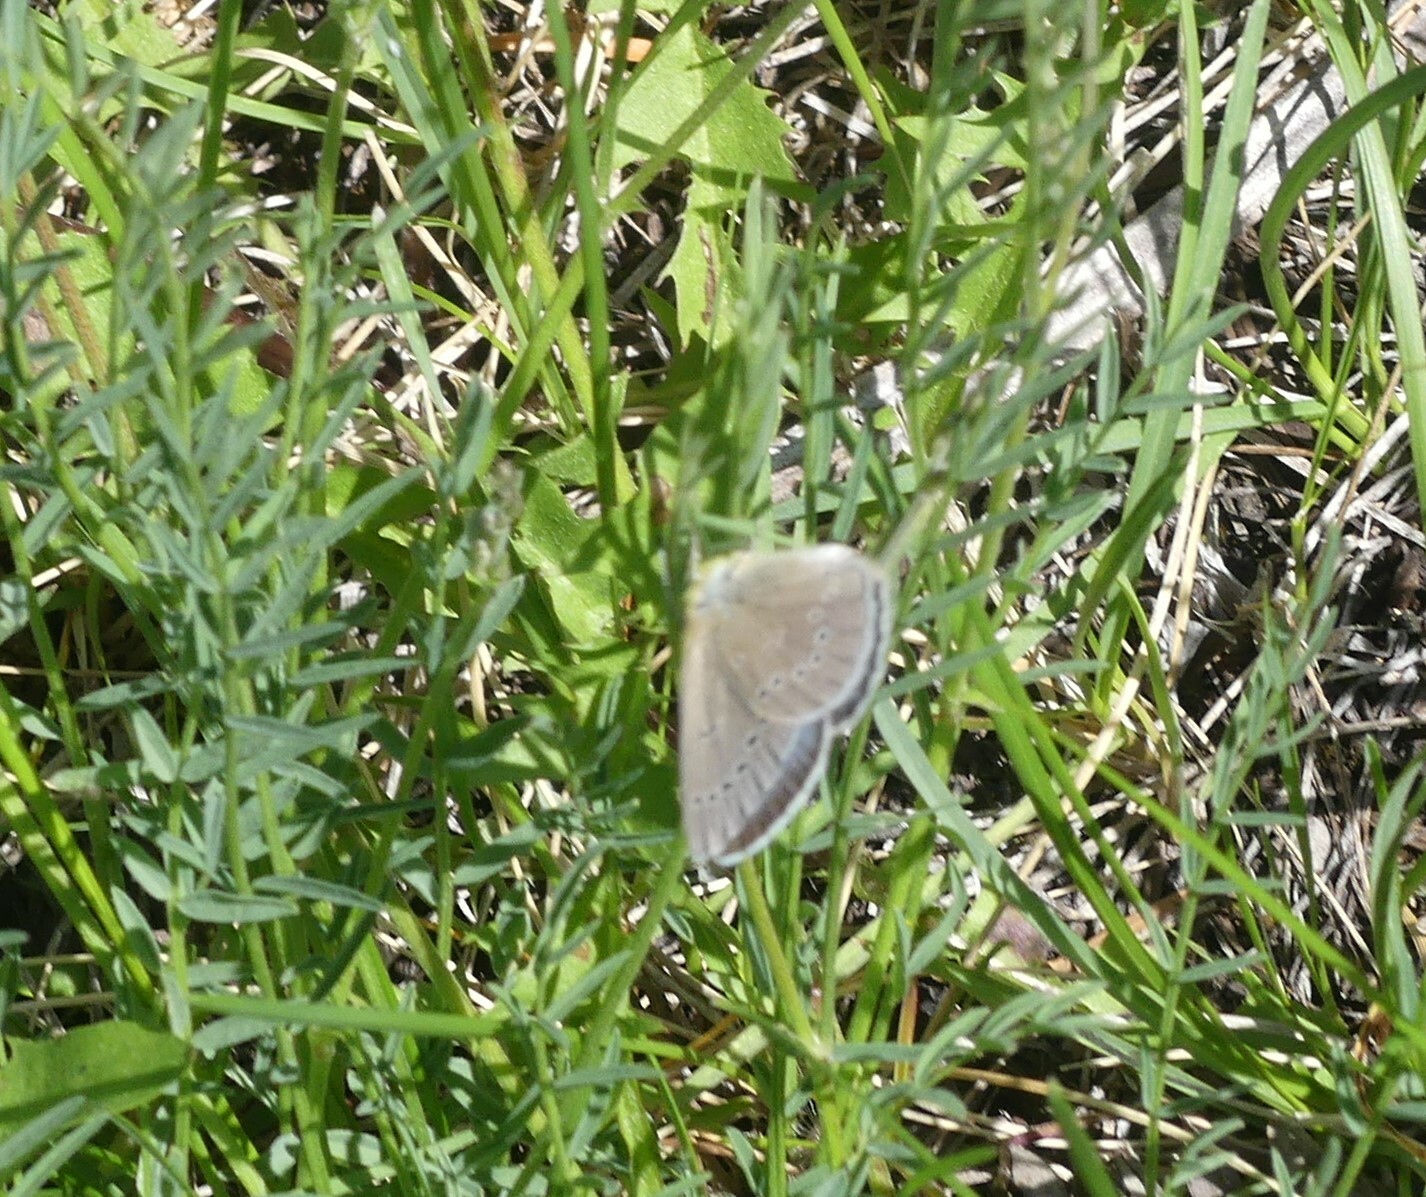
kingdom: Animalia
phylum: Arthropoda
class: Insecta
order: Lepidoptera
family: Lycaenidae
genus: Glaucopsyche
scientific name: Glaucopsyche lygdamus
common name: Silvery blue
